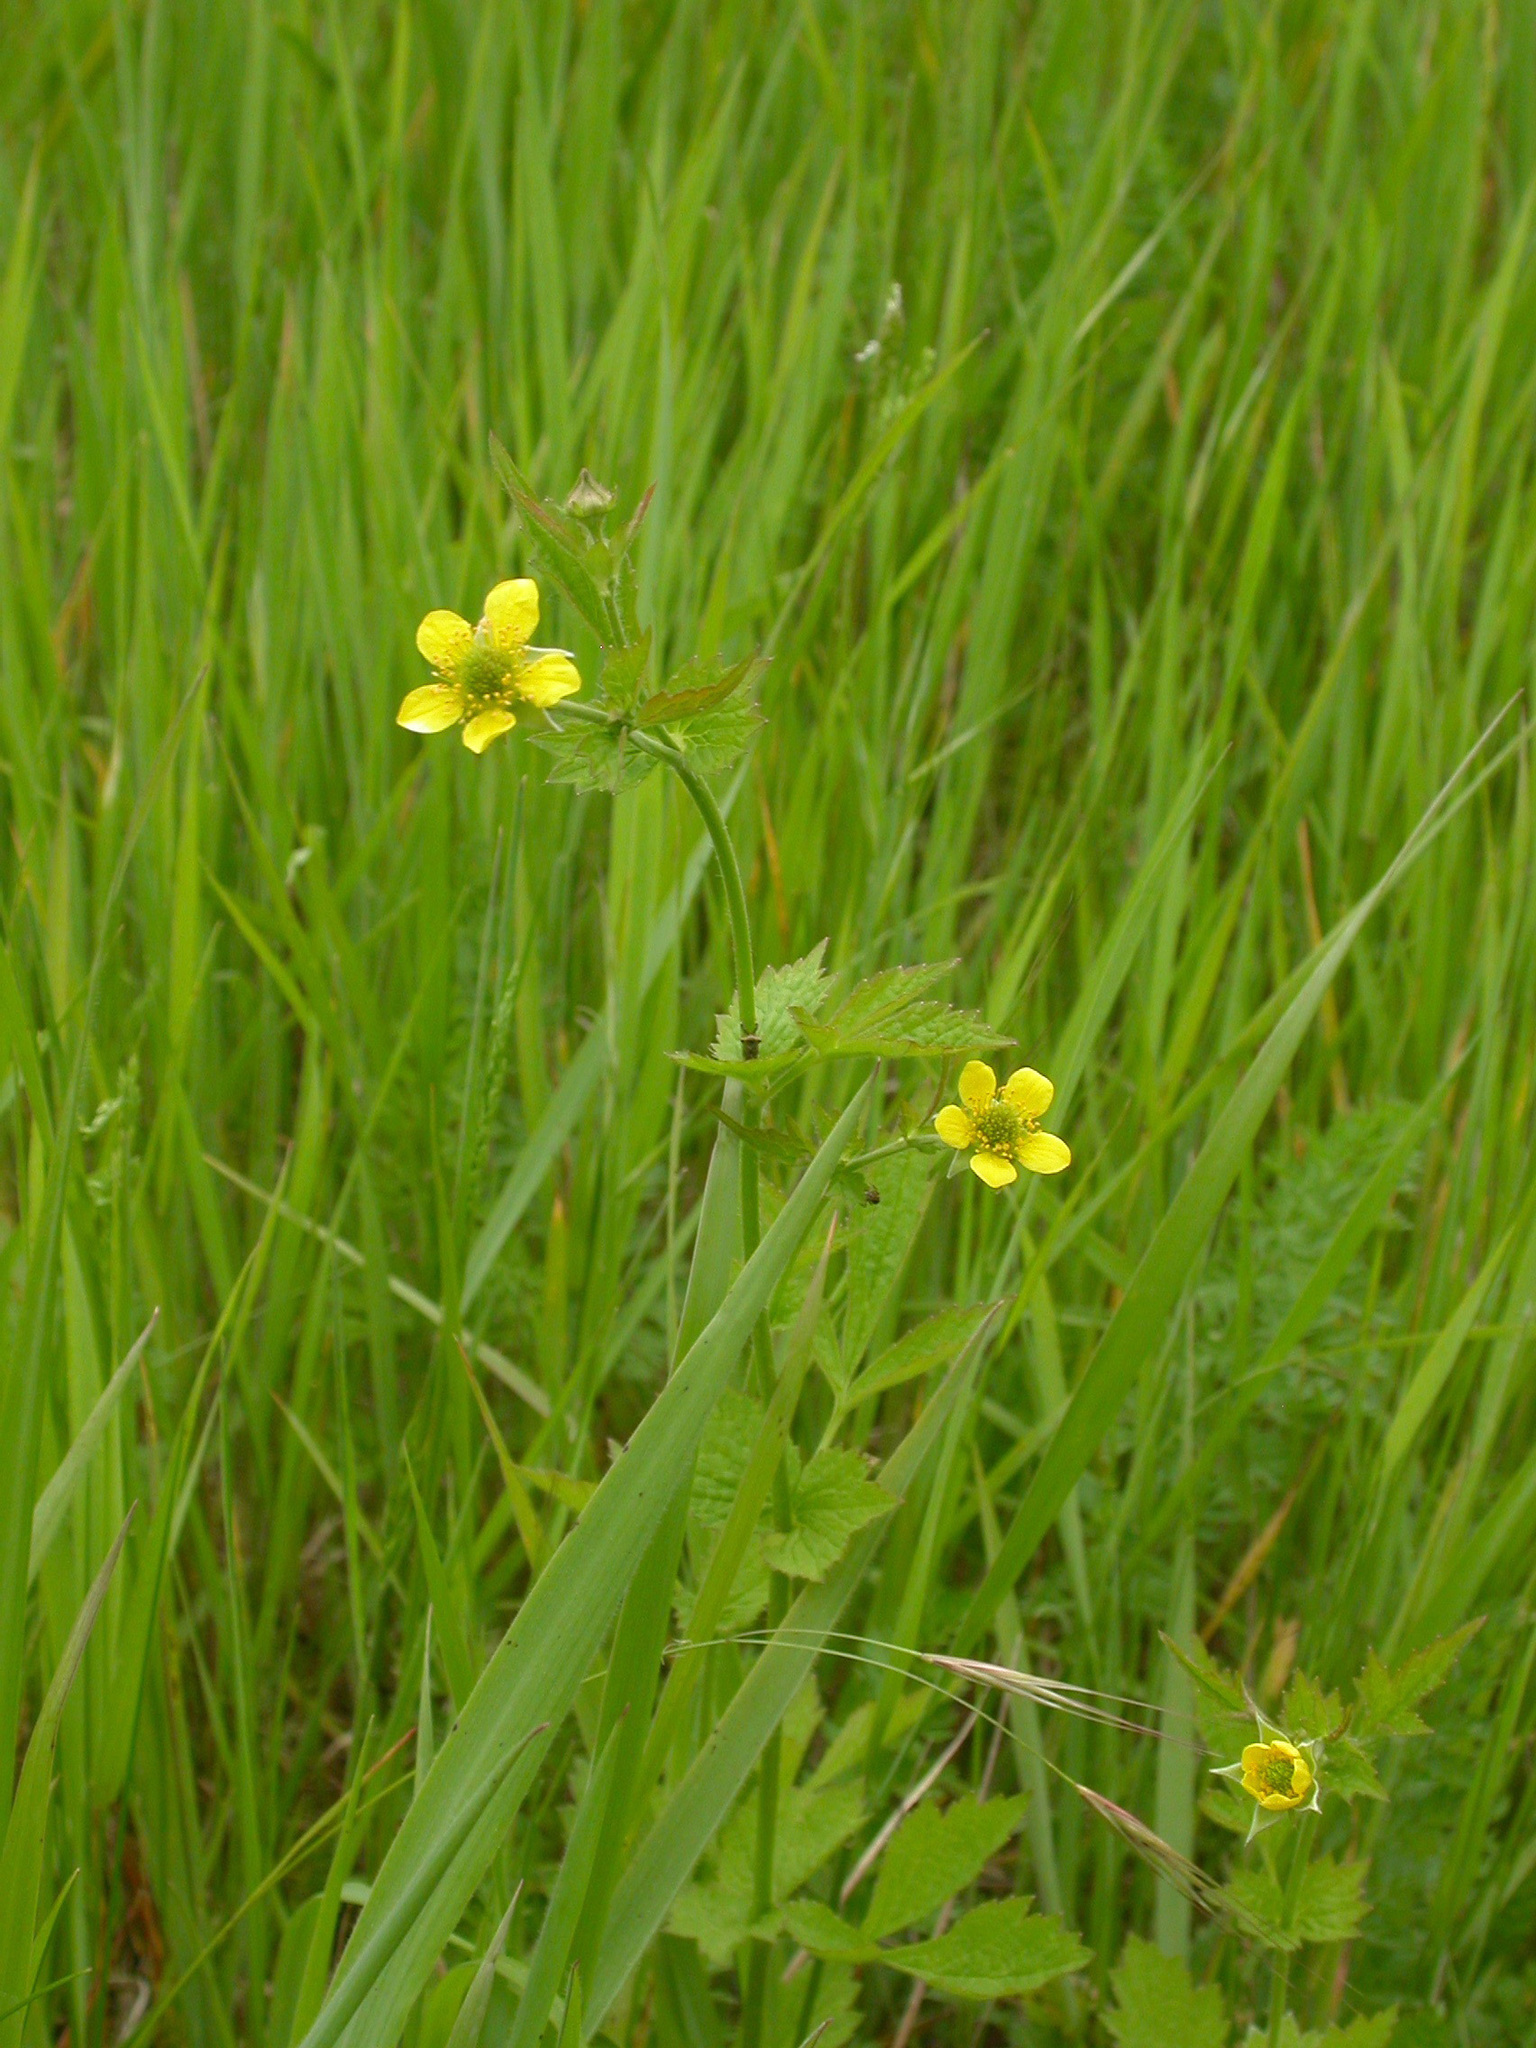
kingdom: Plantae
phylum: Tracheophyta
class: Magnoliopsida
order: Rosales
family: Rosaceae
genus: Geum
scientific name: Geum urbanum
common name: Wood avens
